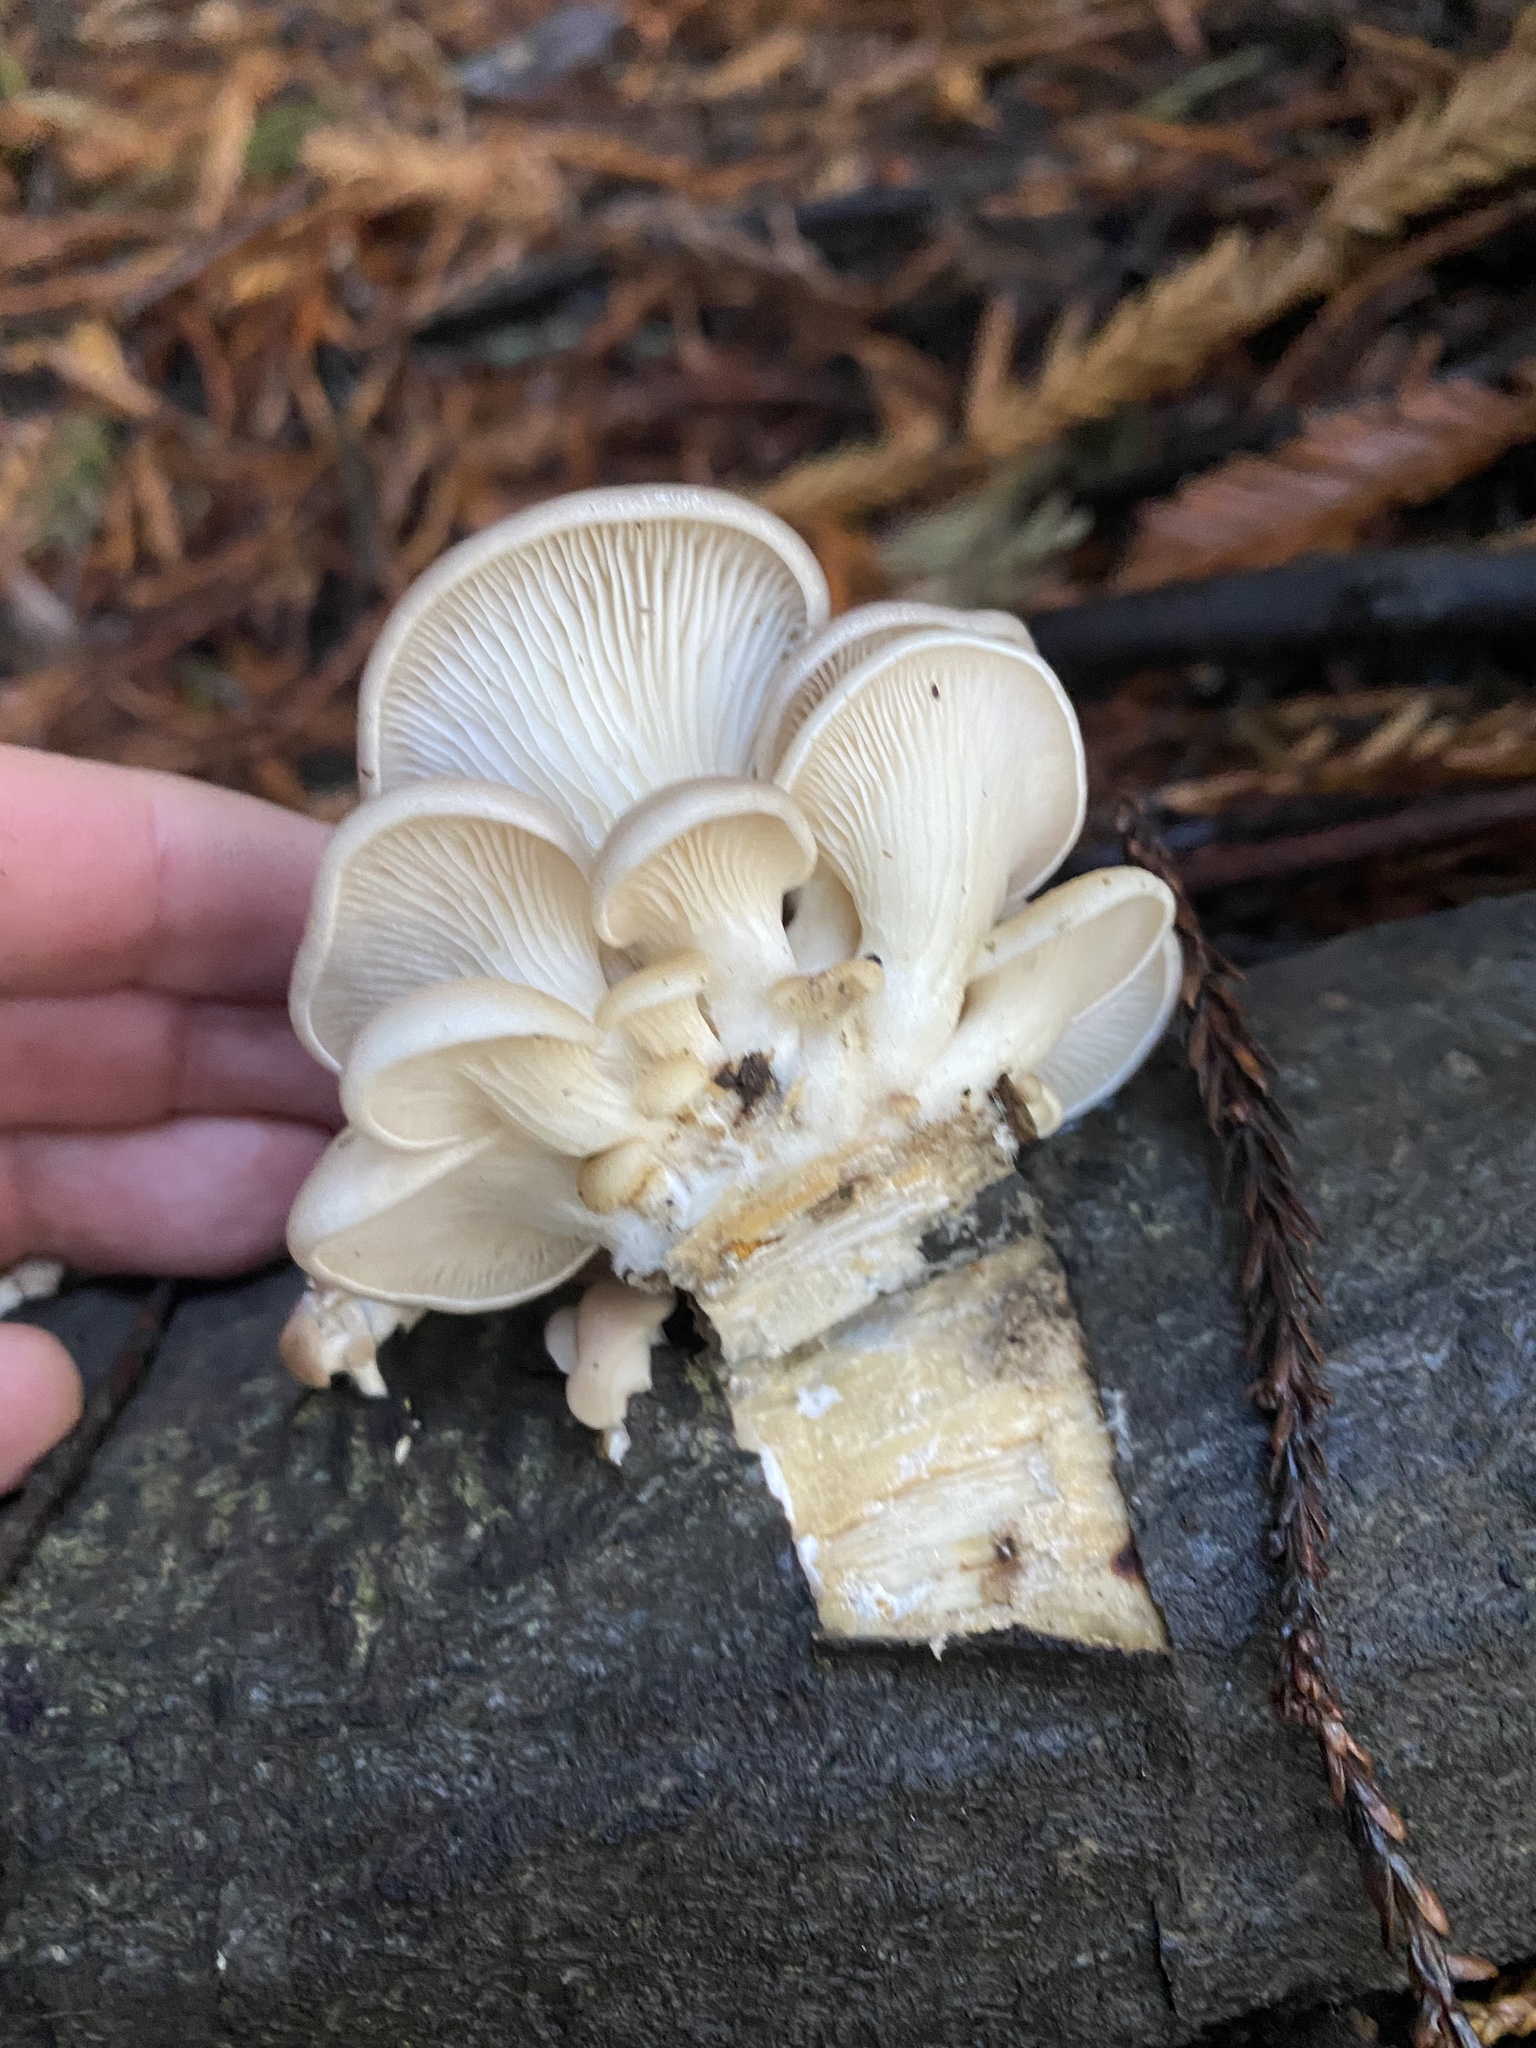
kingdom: Fungi
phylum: Basidiomycota
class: Agaricomycetes
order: Agaricales
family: Pleurotaceae
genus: Pleurotus
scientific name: Pleurotus ostreatus
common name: Oyster mushroom
